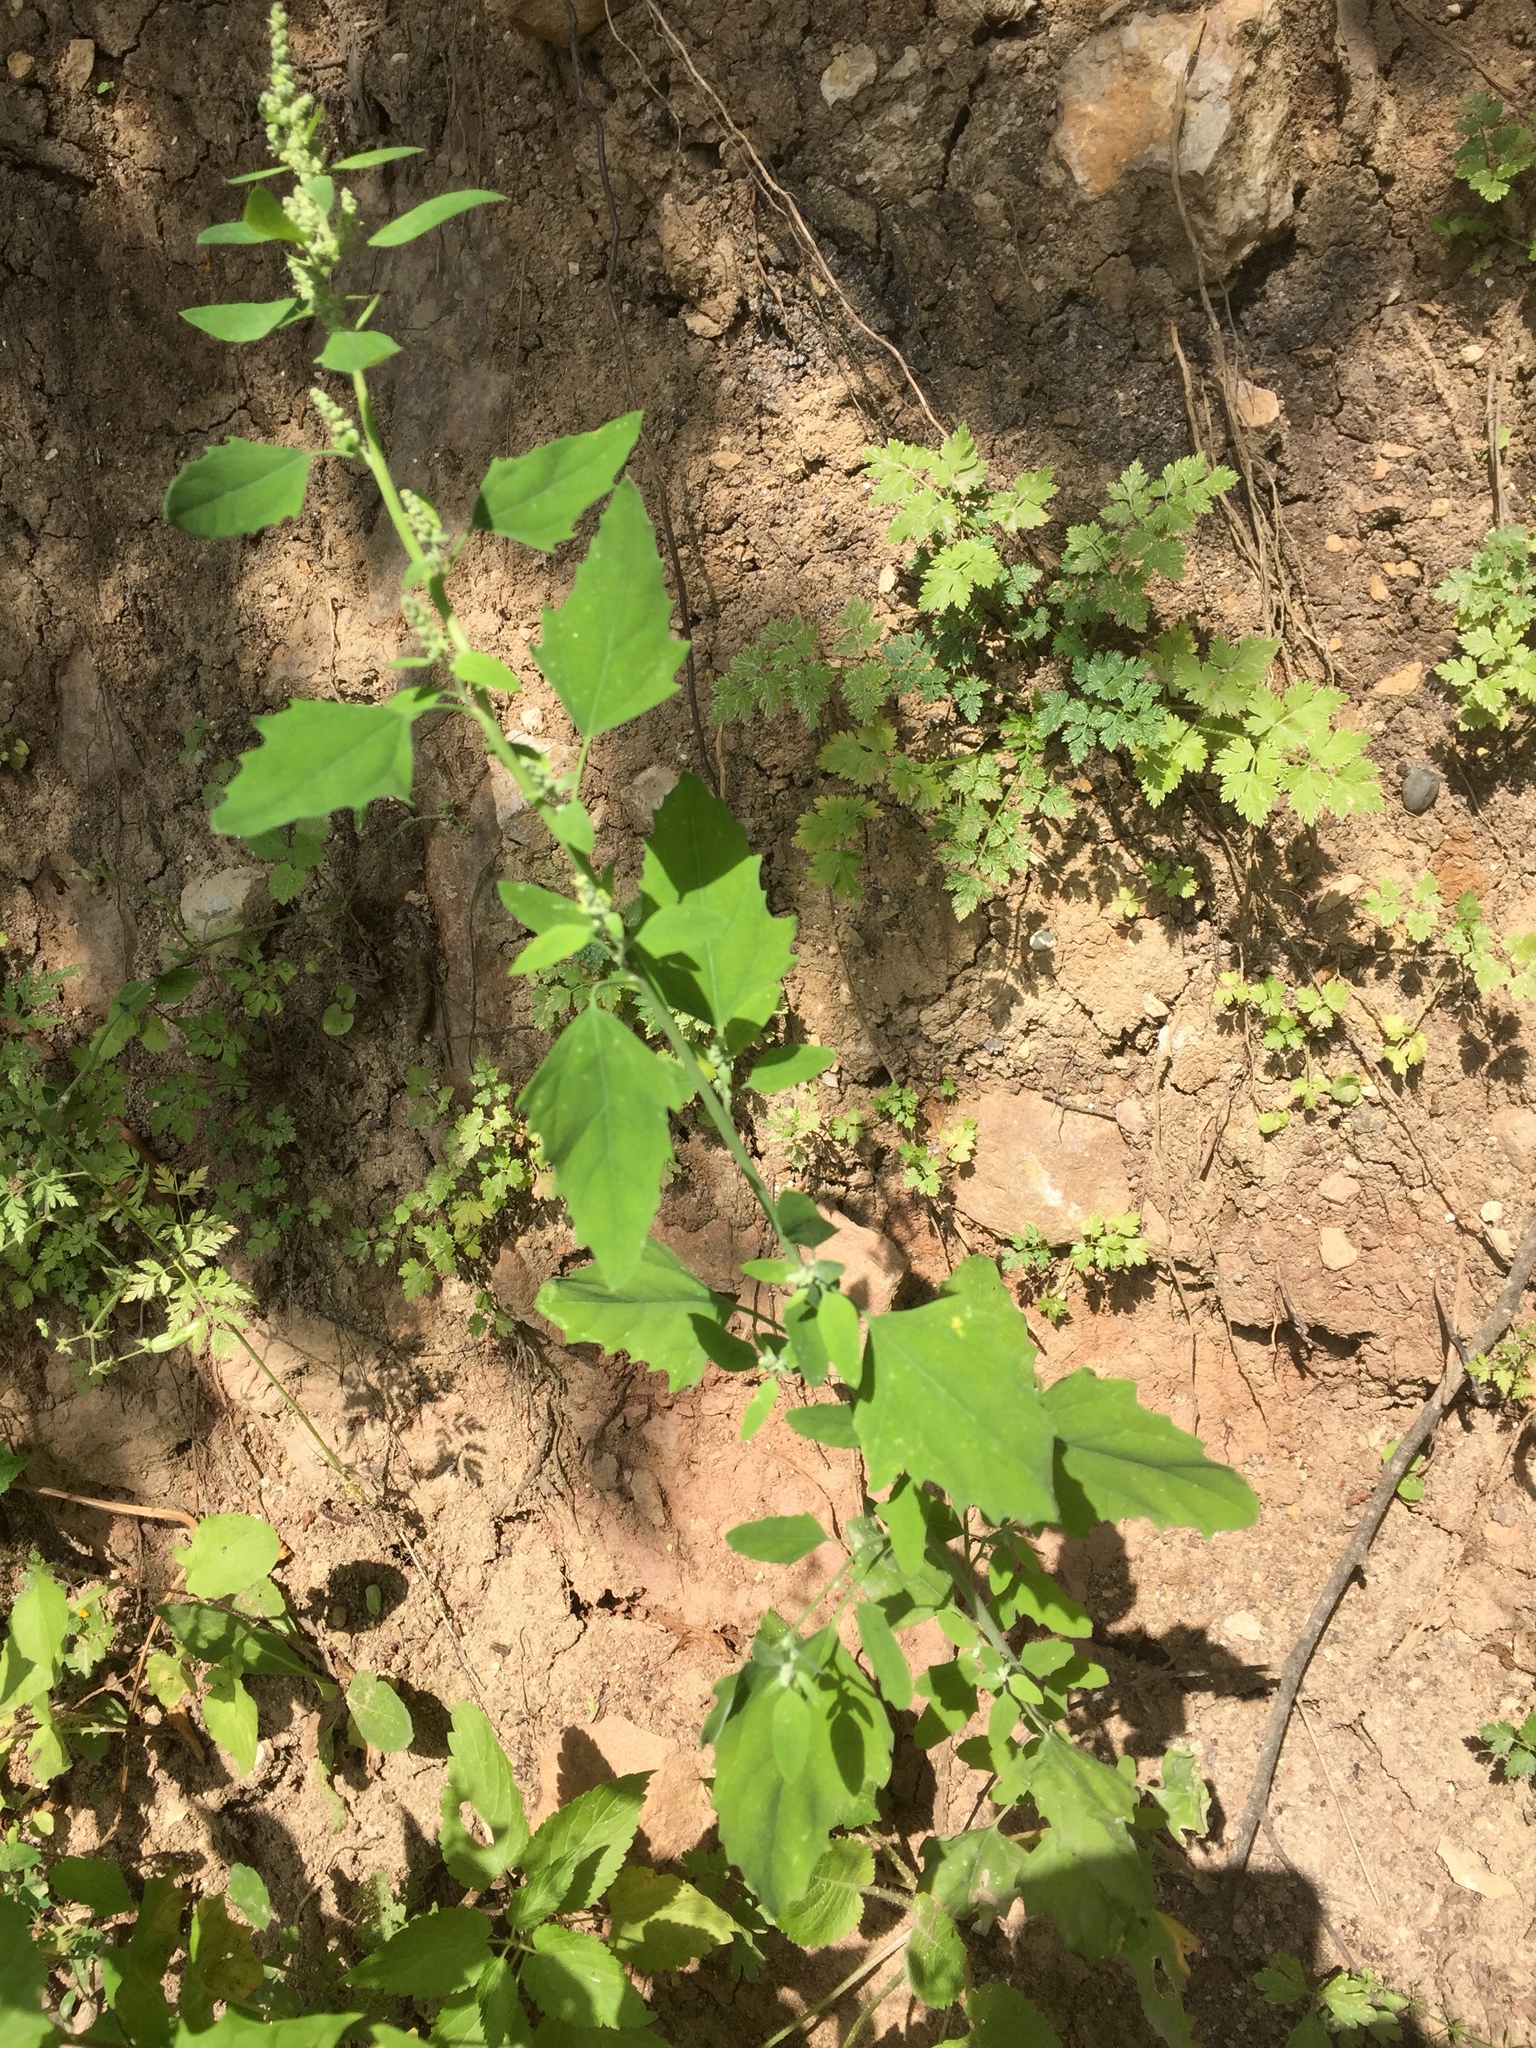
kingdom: Plantae
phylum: Tracheophyta
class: Magnoliopsida
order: Caryophyllales
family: Amaranthaceae
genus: Chenopodium
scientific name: Chenopodium album
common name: Fat-hen
